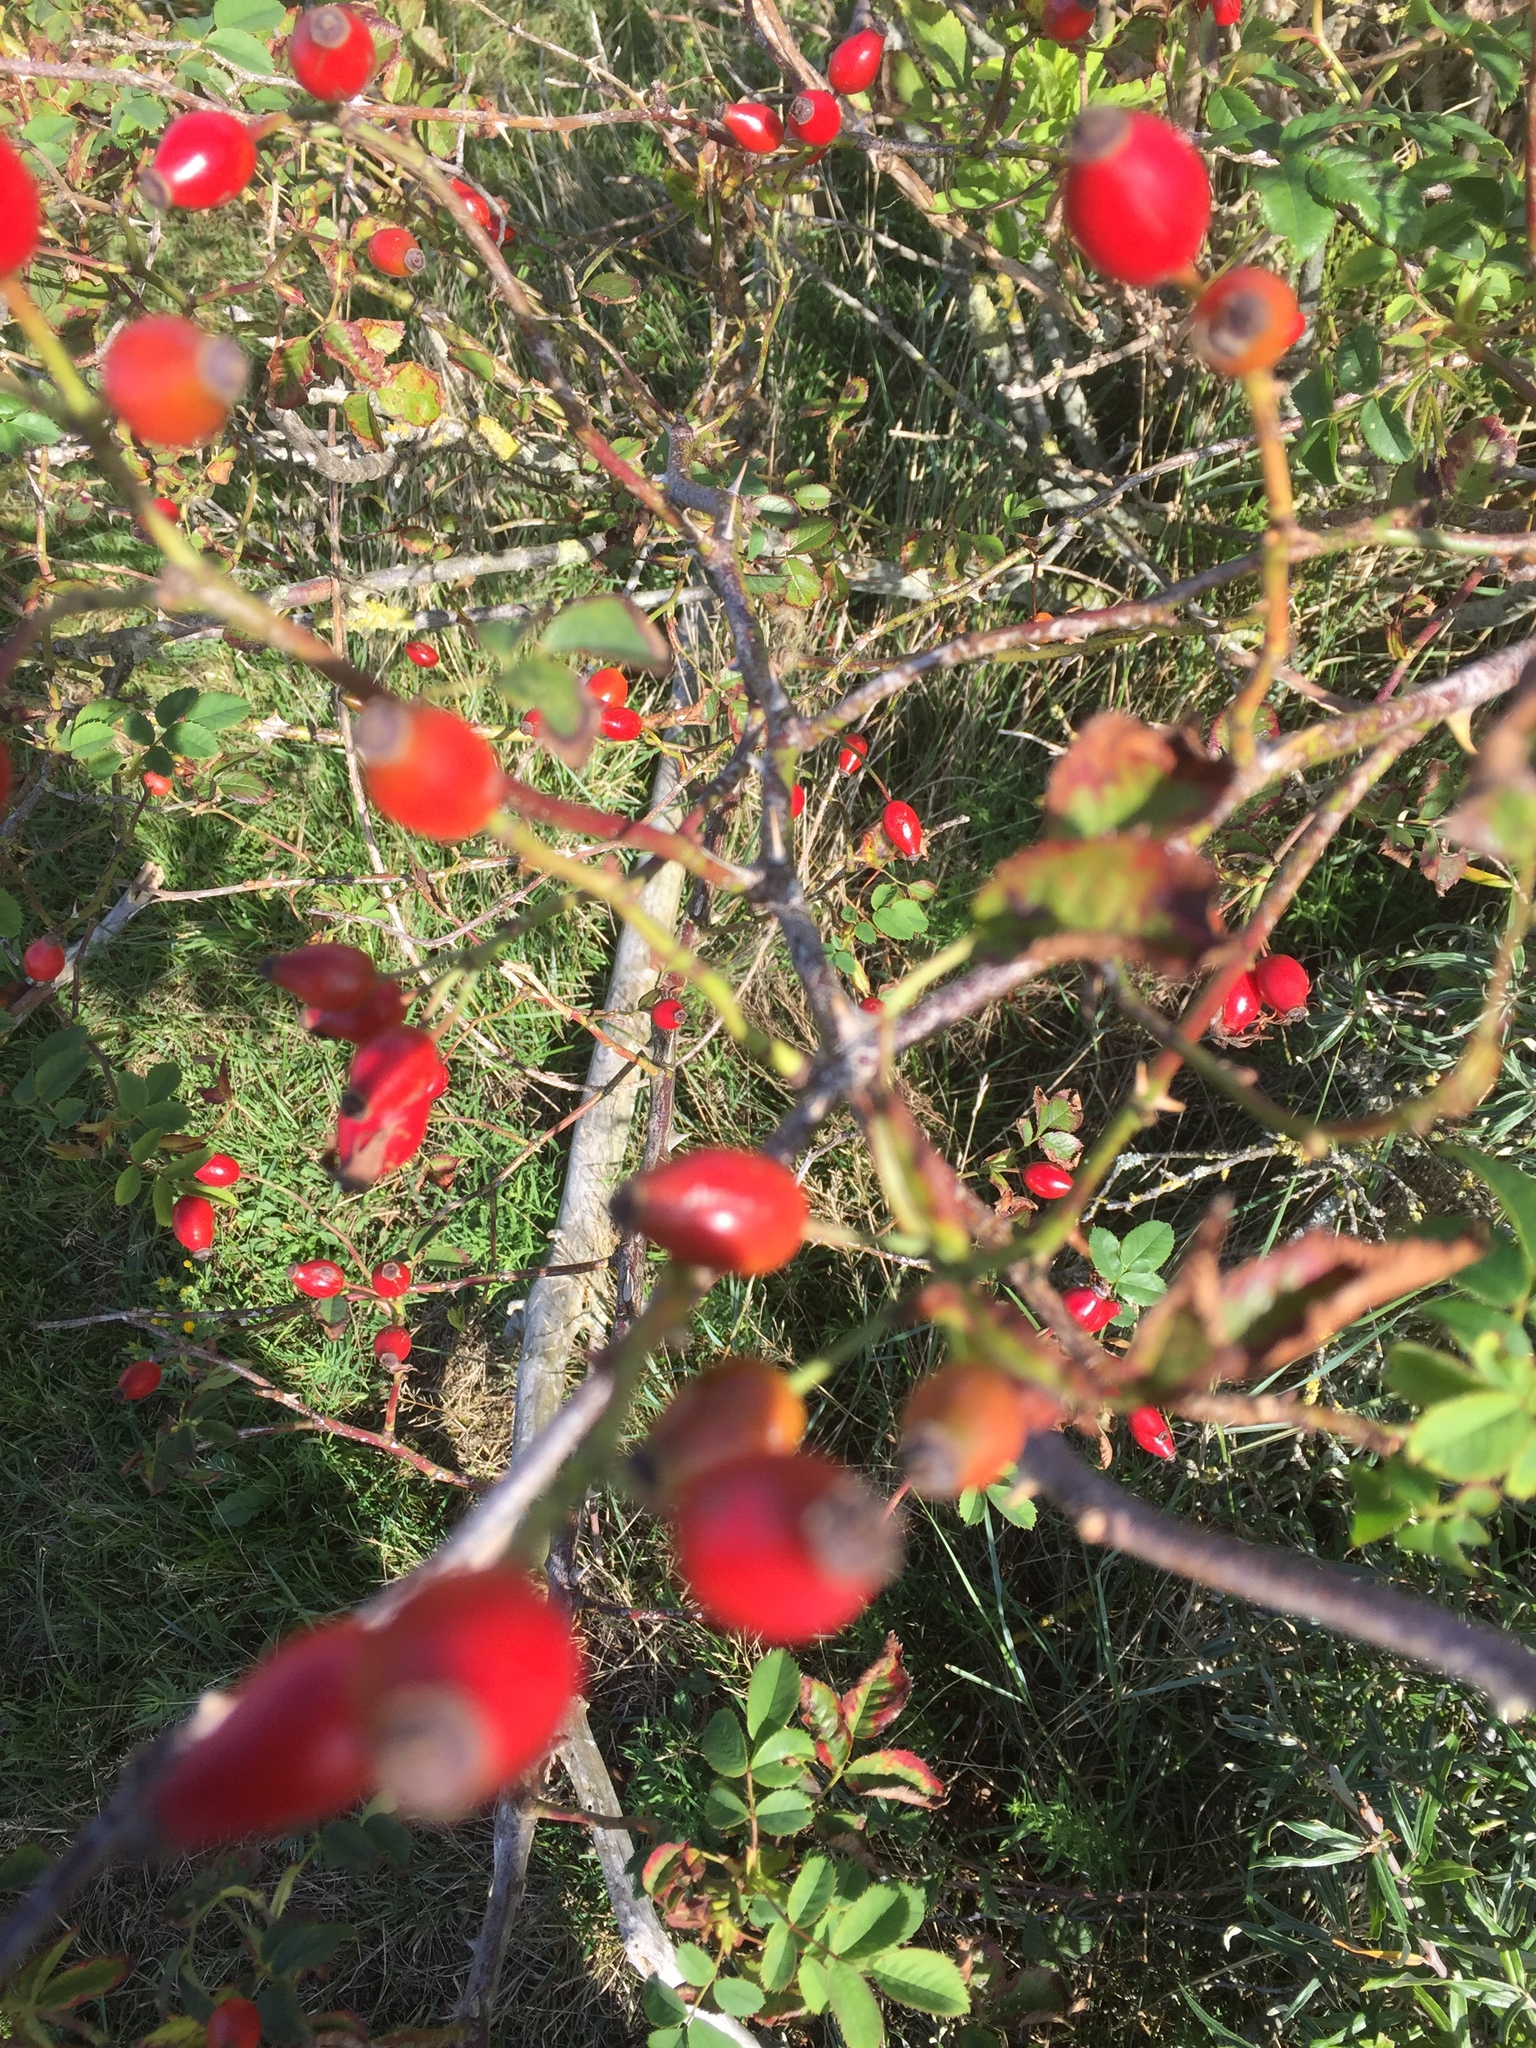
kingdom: Plantae
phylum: Tracheophyta
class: Magnoliopsida
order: Rosales
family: Rosaceae
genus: Rosa
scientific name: Rosa canina
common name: Dog rose
